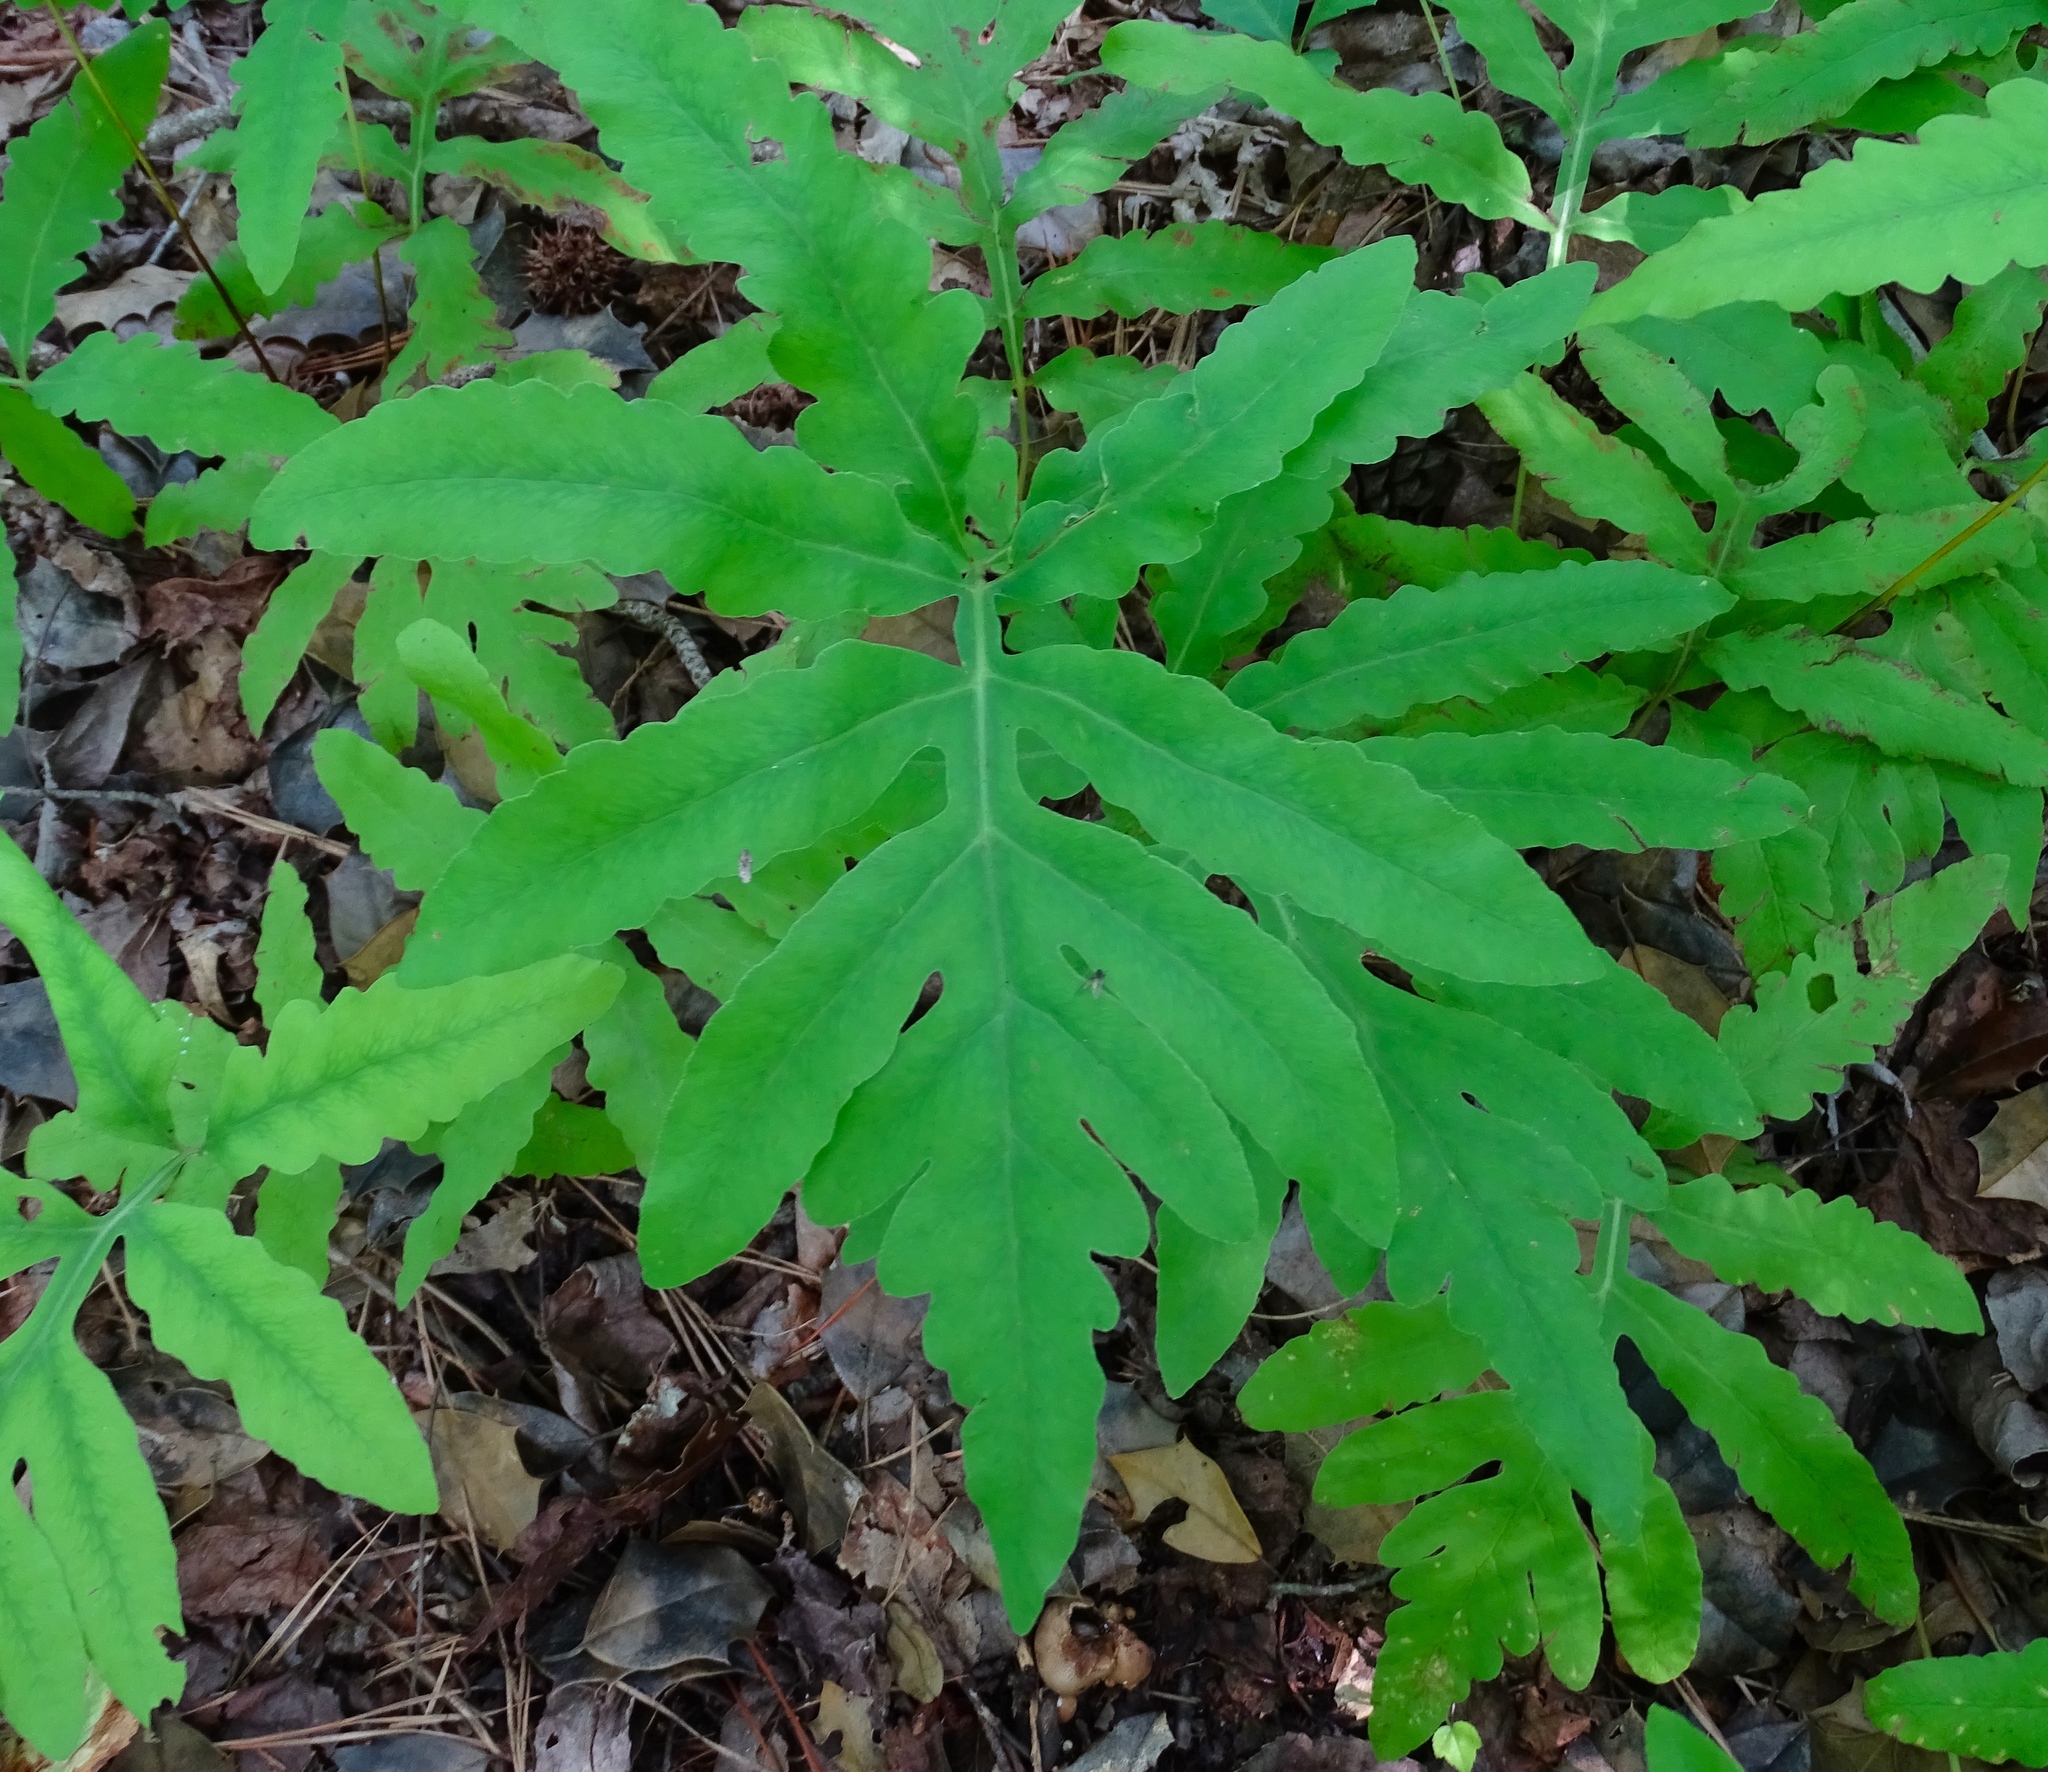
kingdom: Plantae
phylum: Tracheophyta
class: Polypodiopsida
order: Polypodiales
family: Onocleaceae
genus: Onoclea
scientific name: Onoclea sensibilis
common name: Sensitive fern
